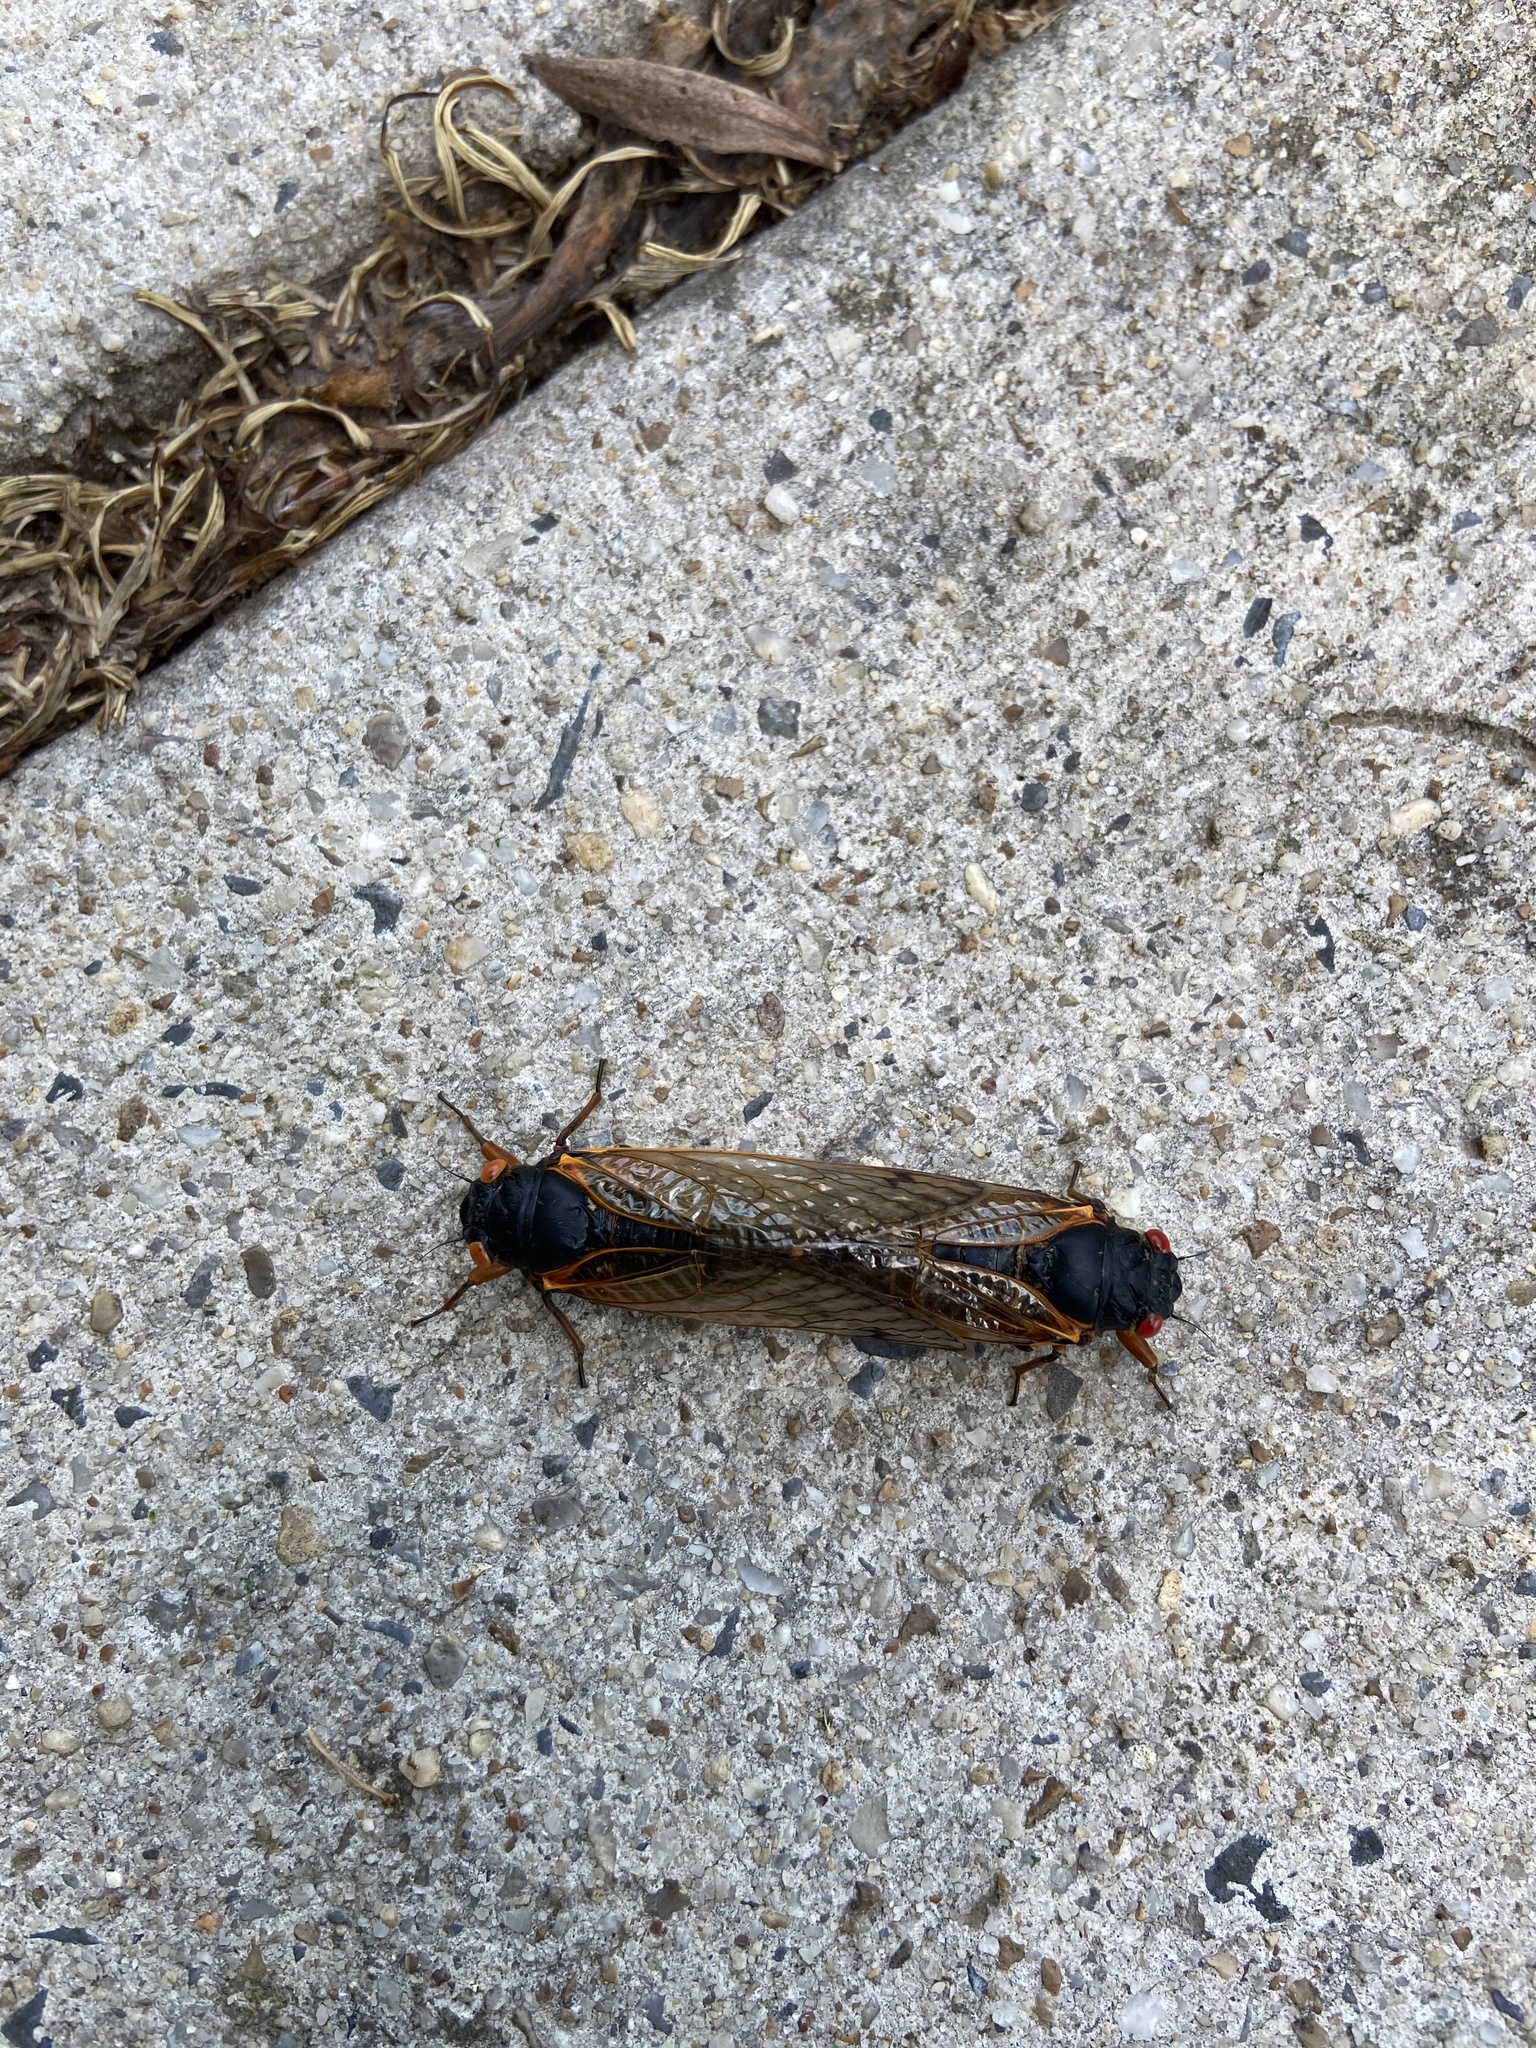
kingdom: Animalia
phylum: Arthropoda
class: Insecta
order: Hemiptera
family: Cicadidae
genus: Magicicada
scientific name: Magicicada
